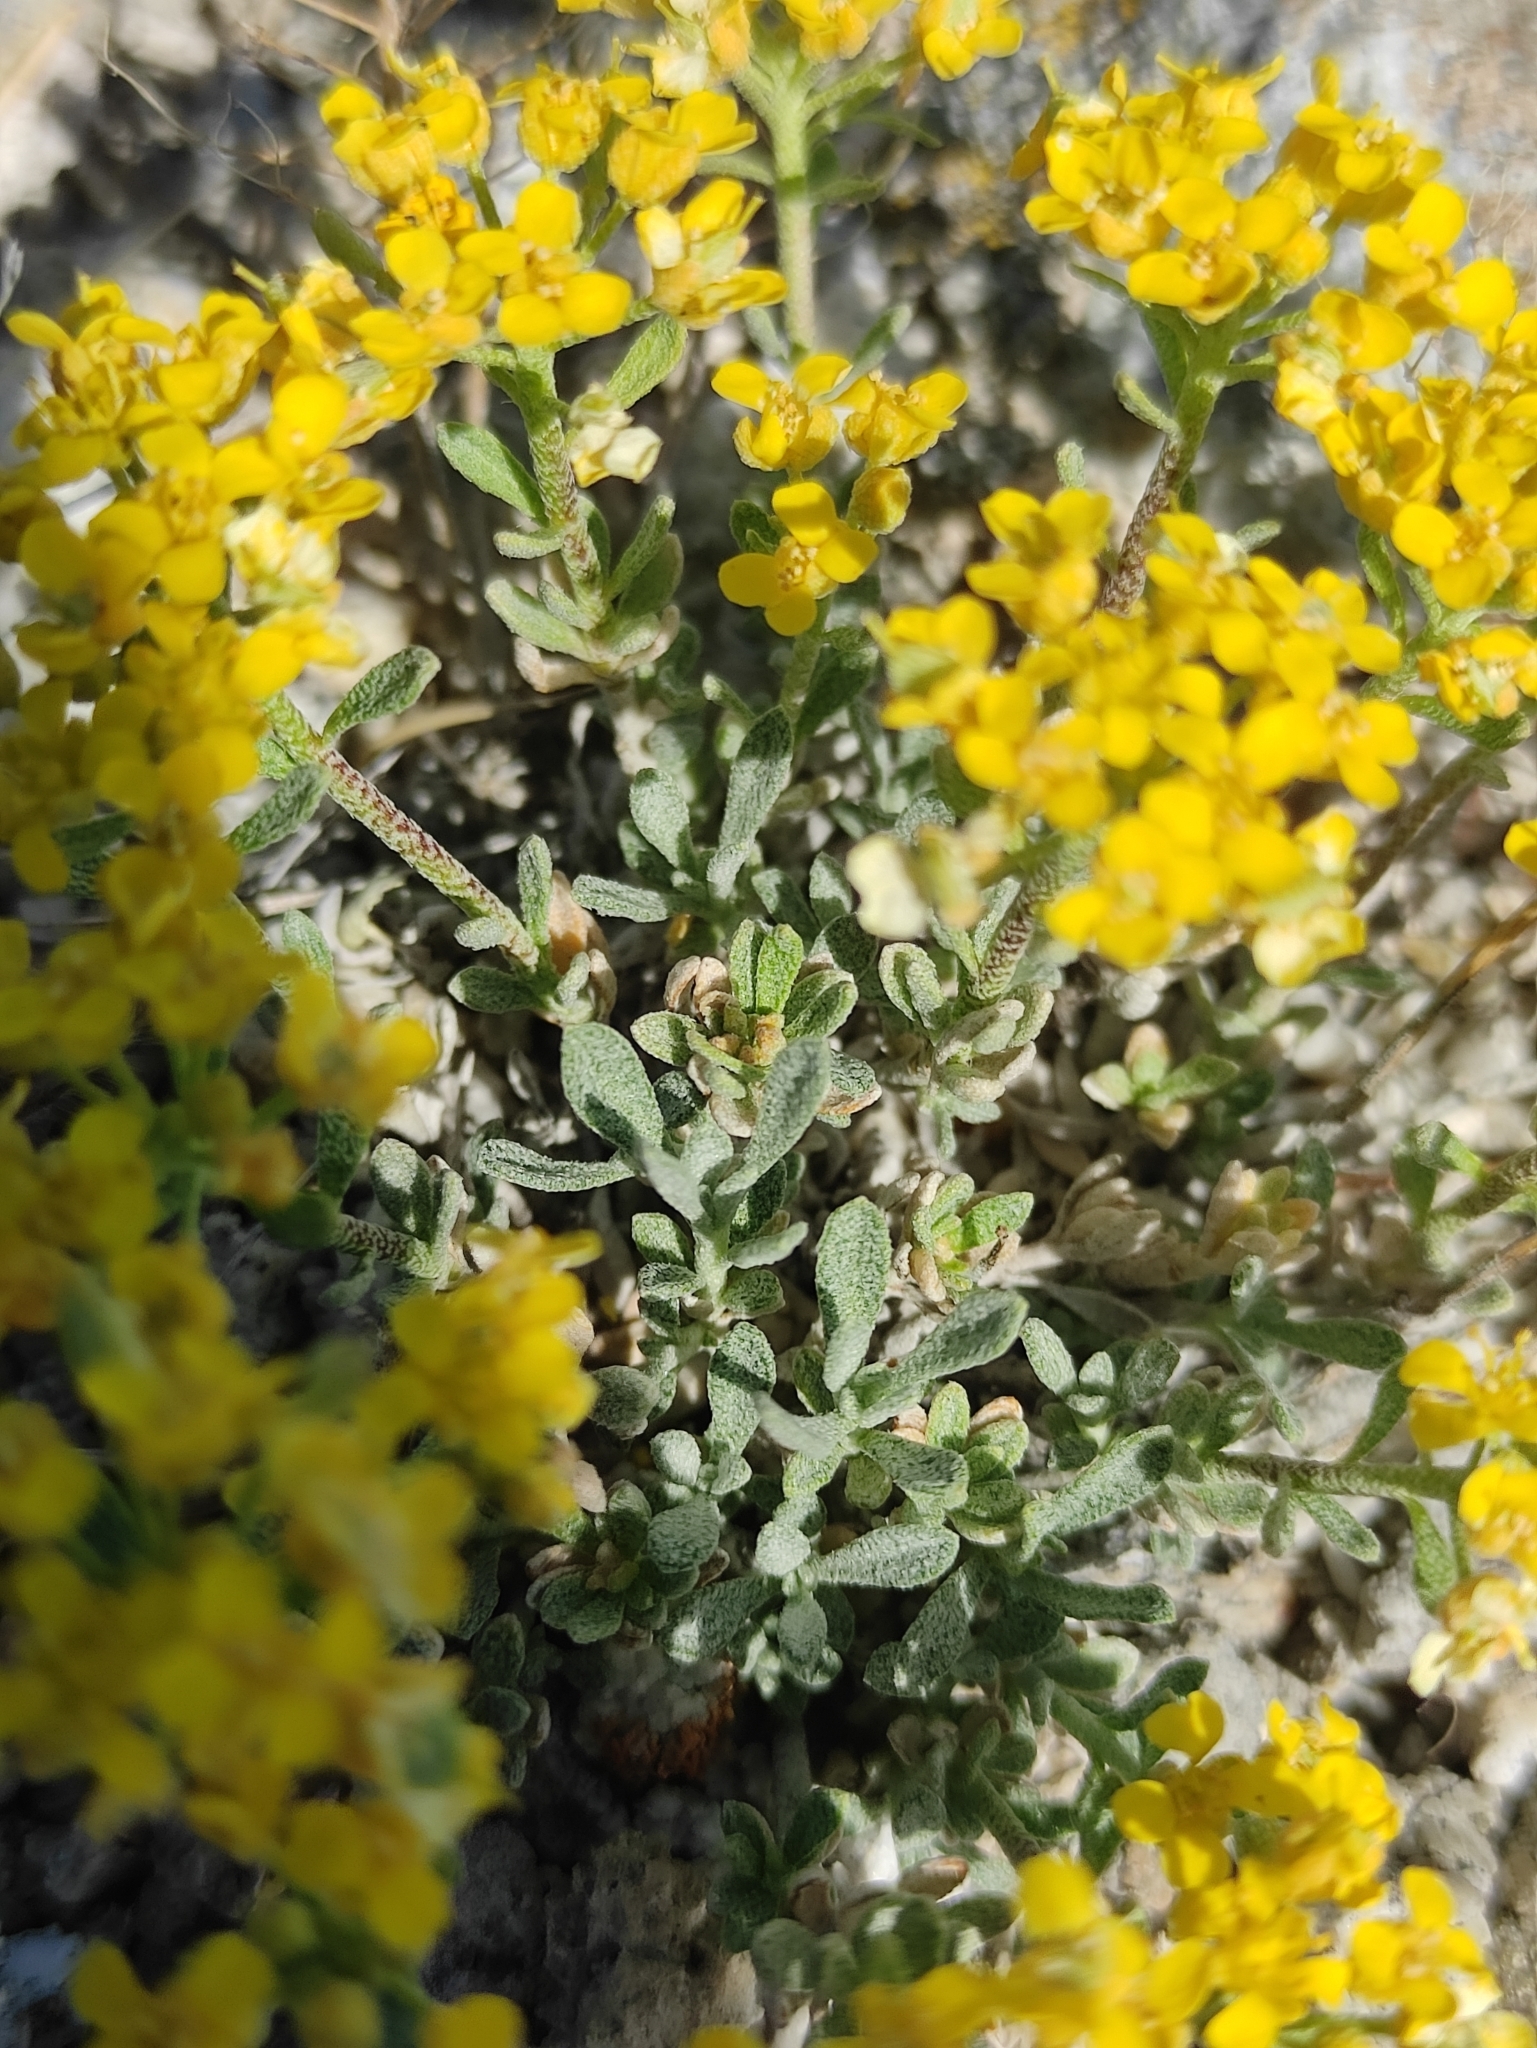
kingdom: Plantae
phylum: Tracheophyta
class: Magnoliopsida
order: Brassicales
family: Brassicaceae
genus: Odontarrhena
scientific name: Odontarrhena obovata
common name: American alyssum
